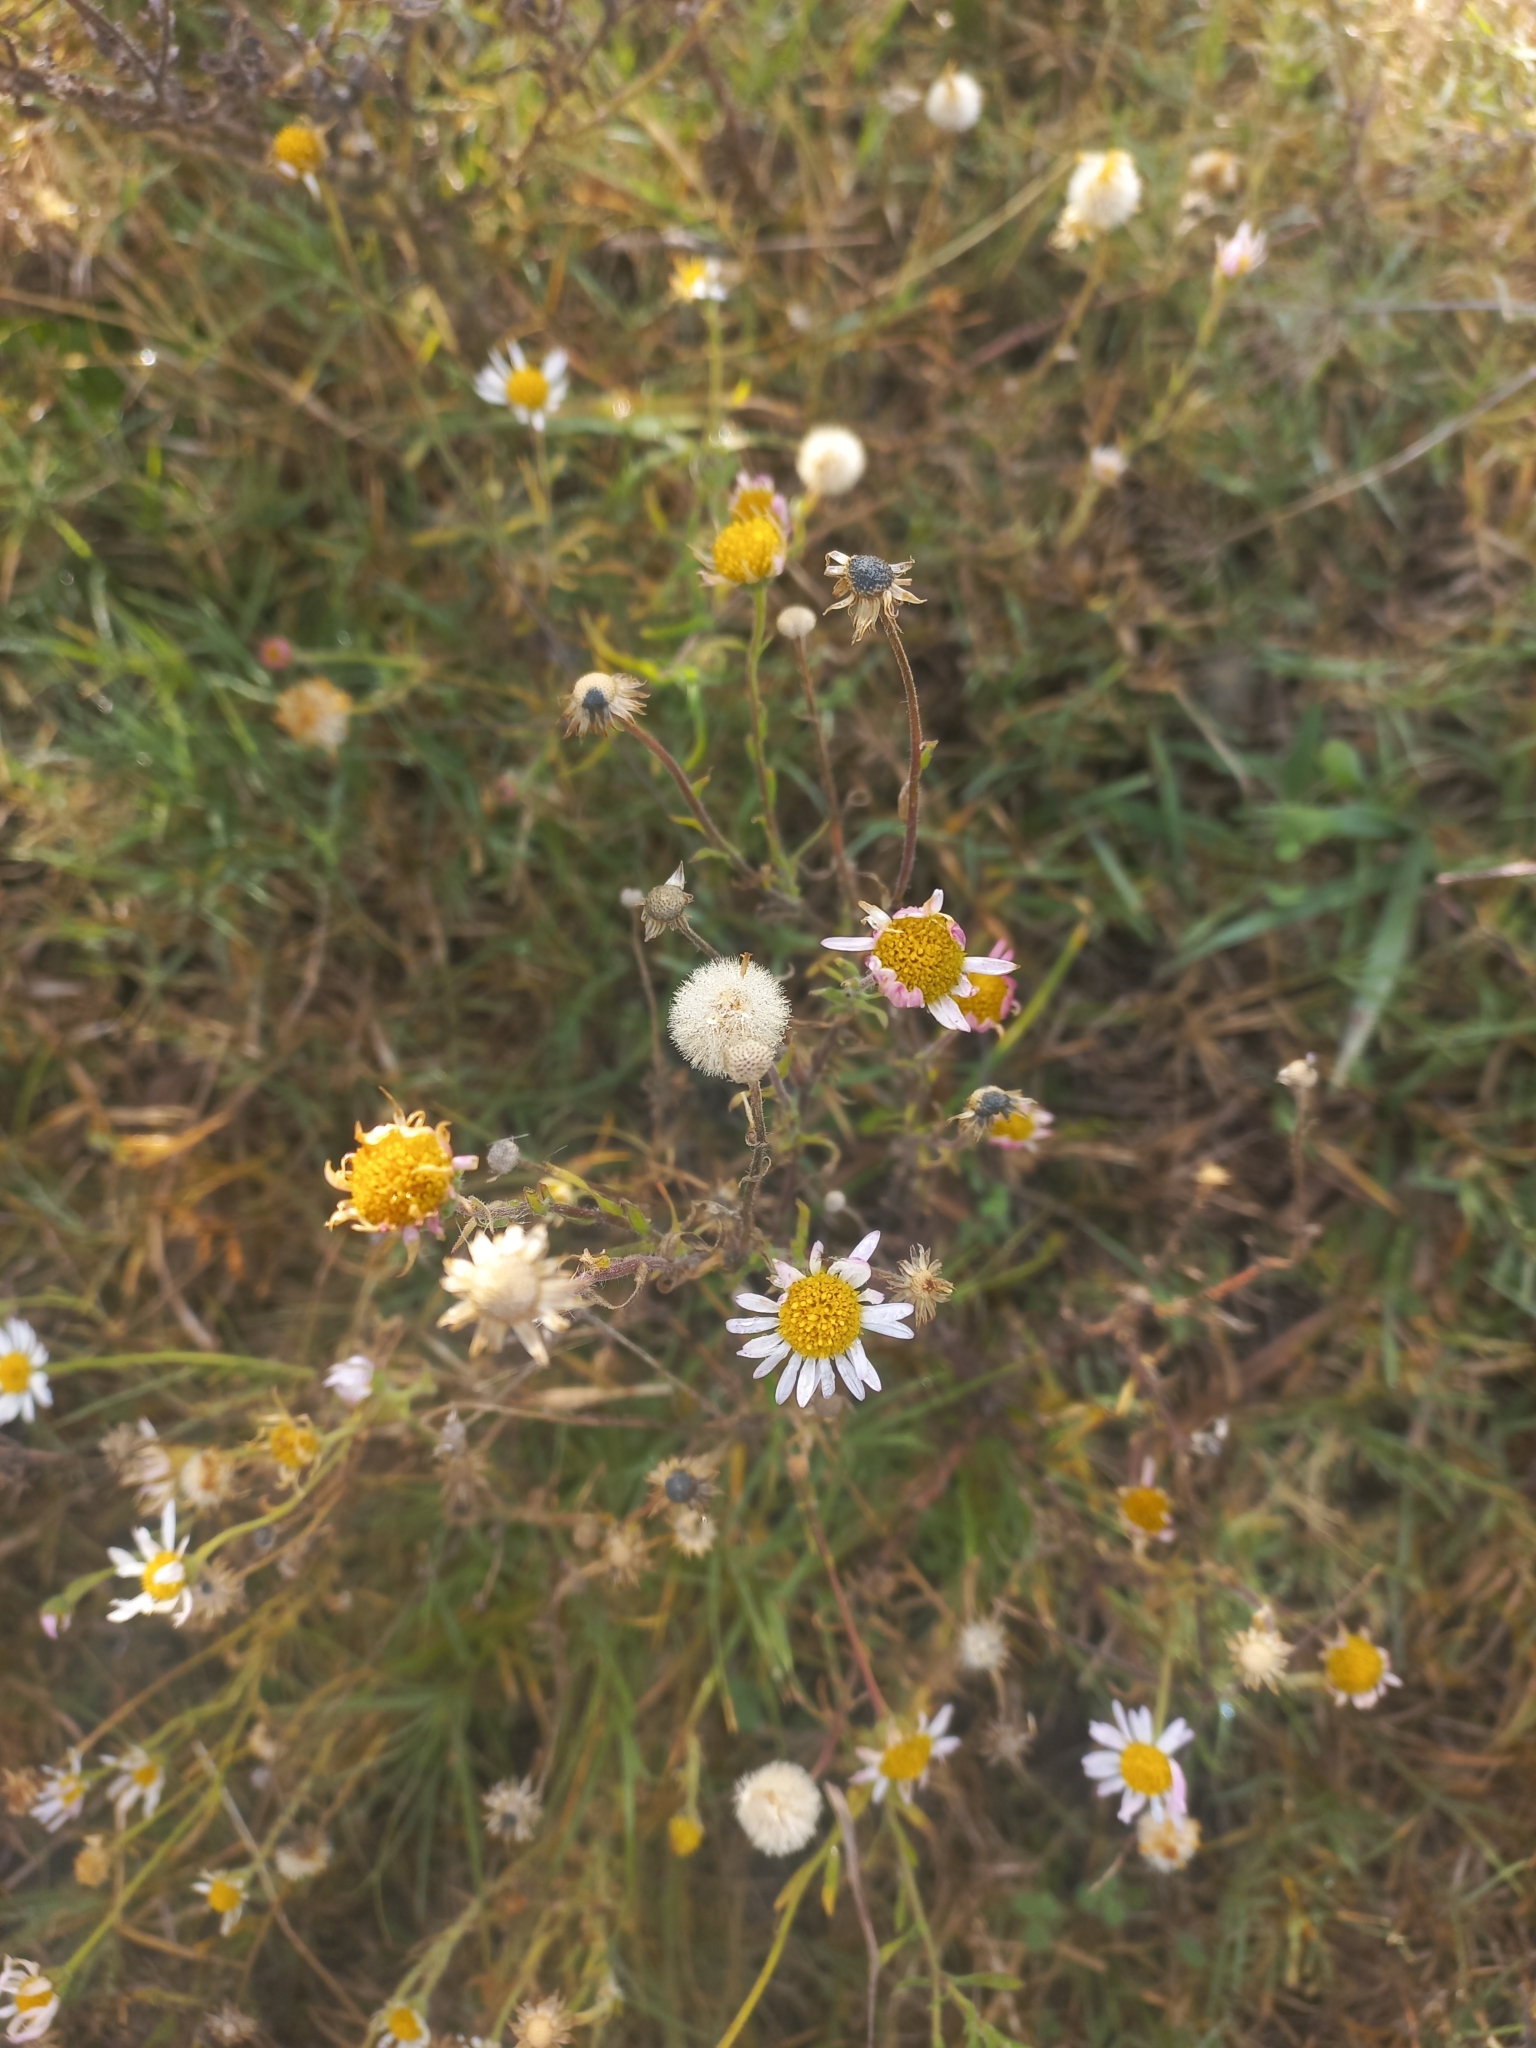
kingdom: Plantae
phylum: Tracheophyta
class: Magnoliopsida
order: Asterales
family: Asteraceae
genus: Hysterionica
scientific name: Hysterionica resinosa
